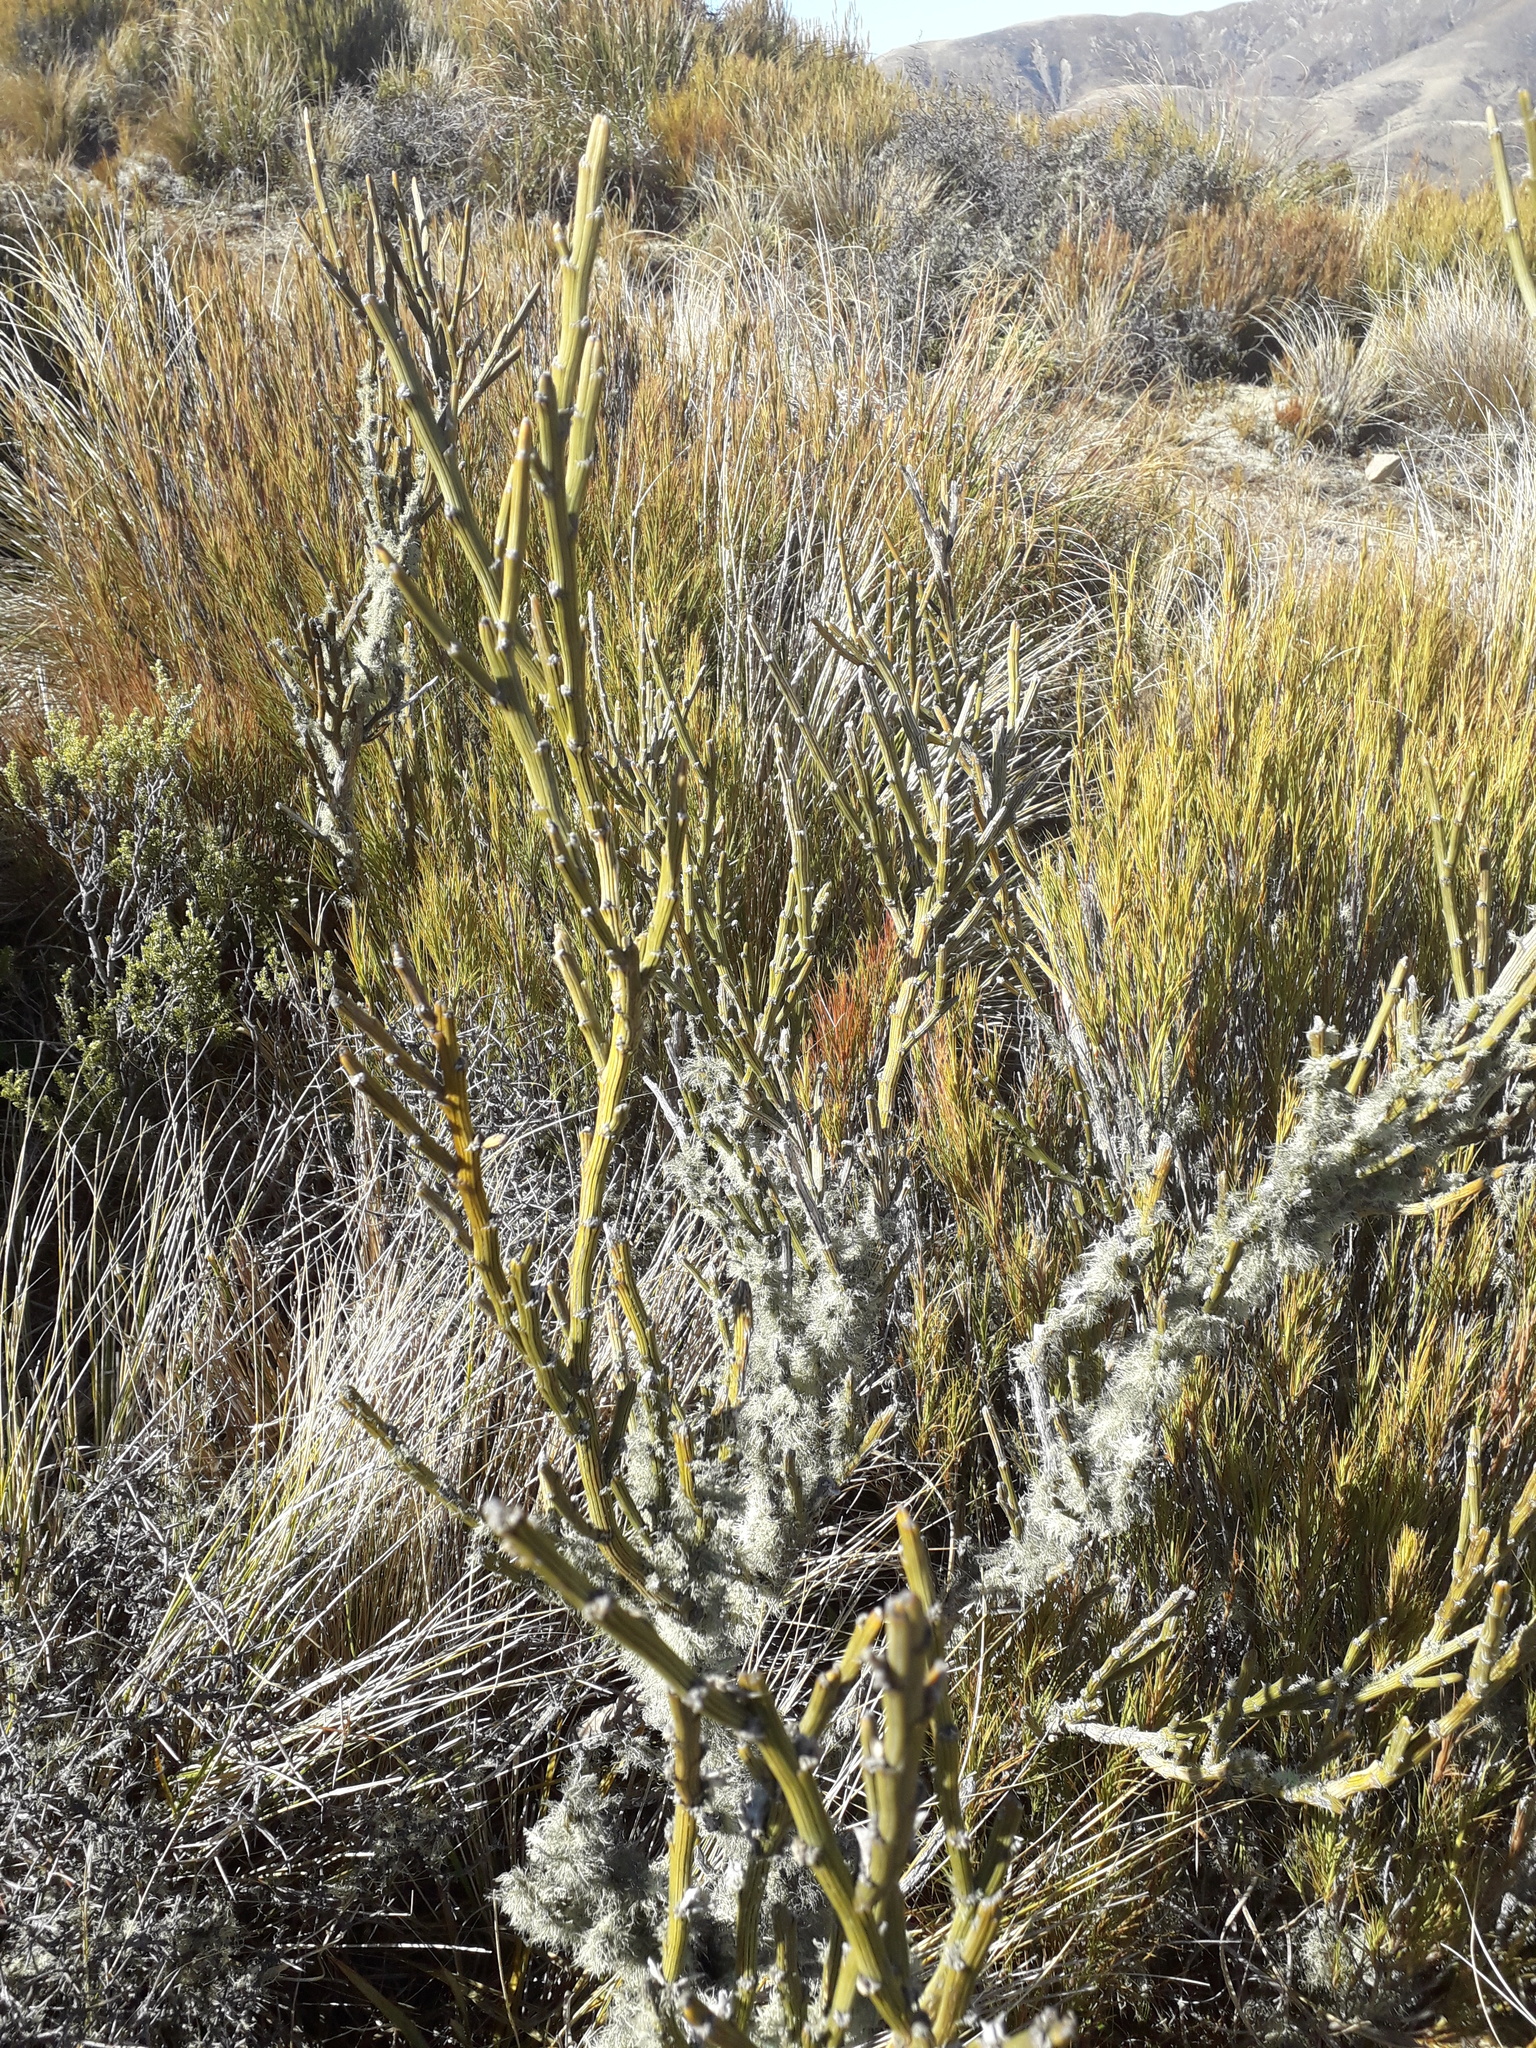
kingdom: Plantae
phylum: Tracheophyta
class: Magnoliopsida
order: Fabales
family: Fabaceae
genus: Carmichaelia
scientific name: Carmichaelia crassicaulis
